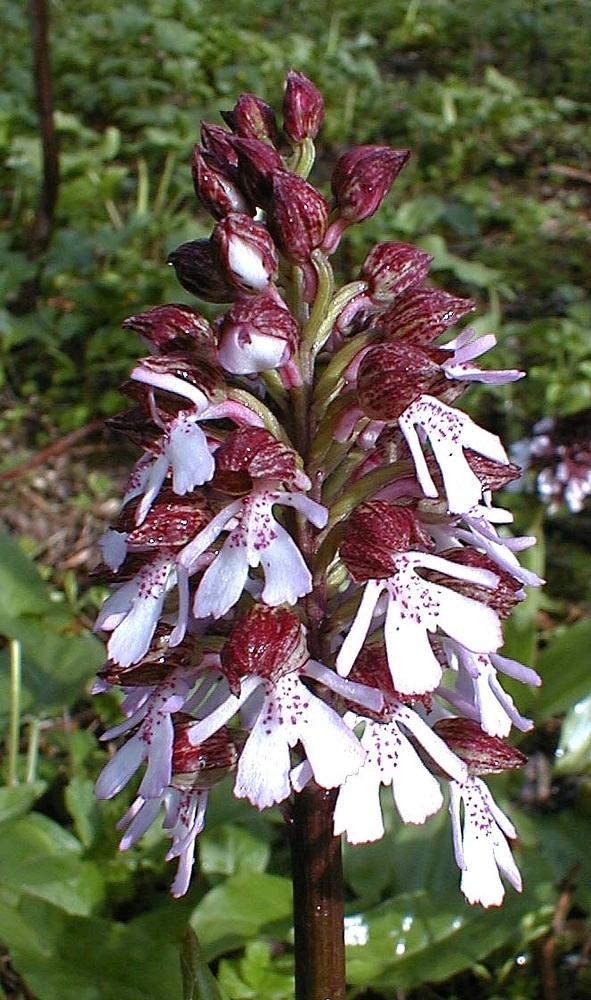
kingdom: Plantae
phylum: Tracheophyta
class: Liliopsida
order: Asparagales
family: Orchidaceae
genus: Orchis
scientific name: Orchis purpurea
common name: Lady orchid
